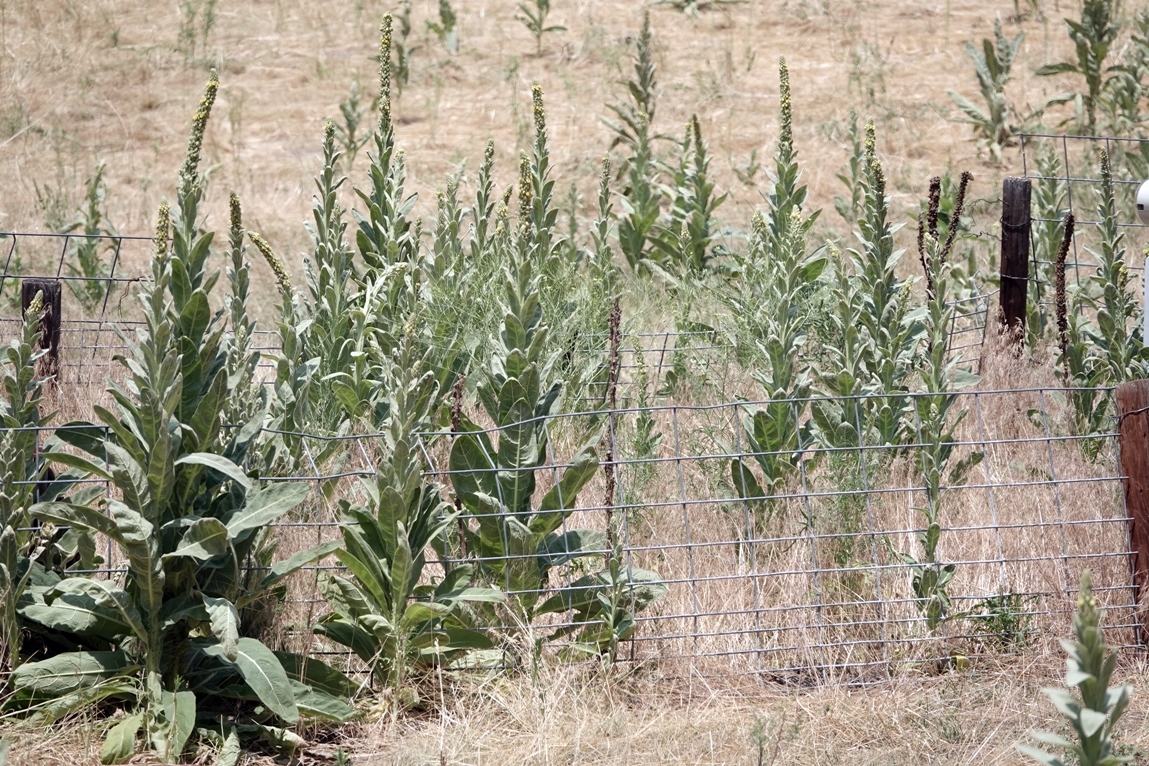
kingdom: Plantae
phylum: Tracheophyta
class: Magnoliopsida
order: Lamiales
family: Scrophulariaceae
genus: Verbascum
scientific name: Verbascum thapsus
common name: Common mullein
